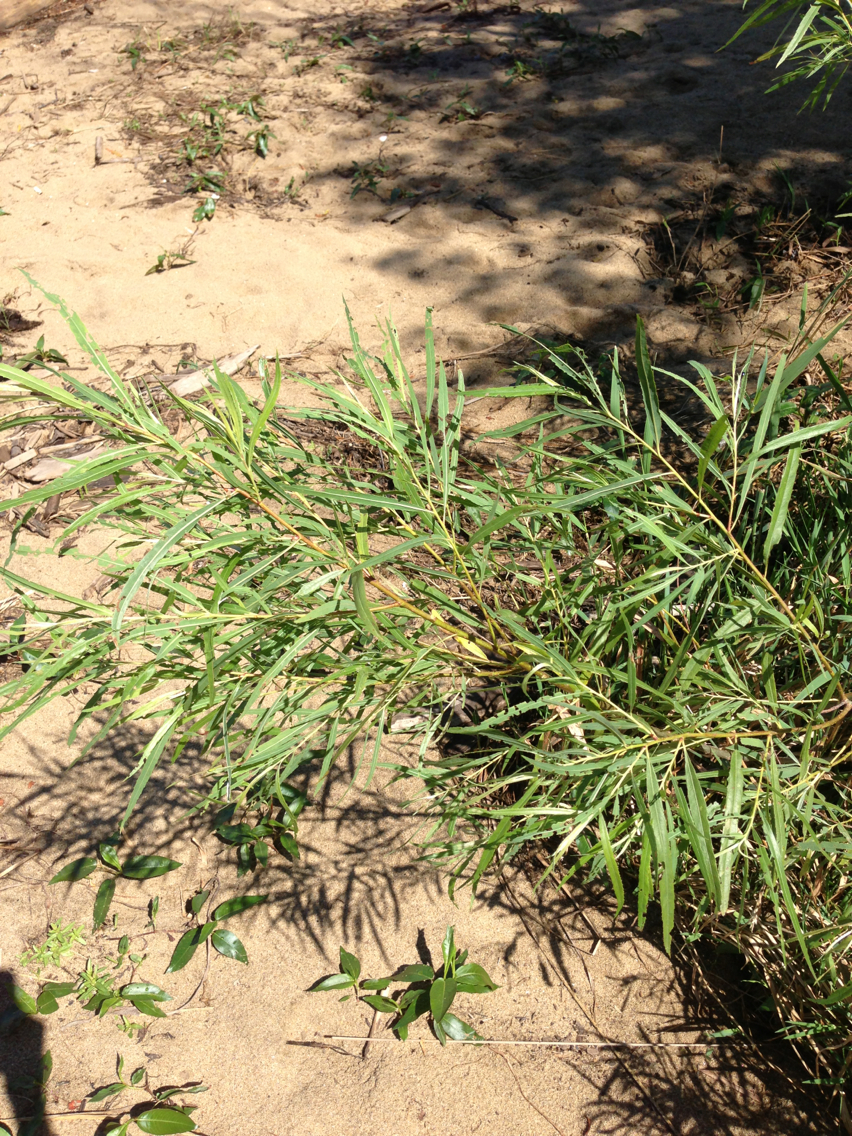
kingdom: Plantae
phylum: Tracheophyta
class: Magnoliopsida
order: Malpighiales
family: Salicaceae
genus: Salix
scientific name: Salix interior
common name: Sandbar willow
